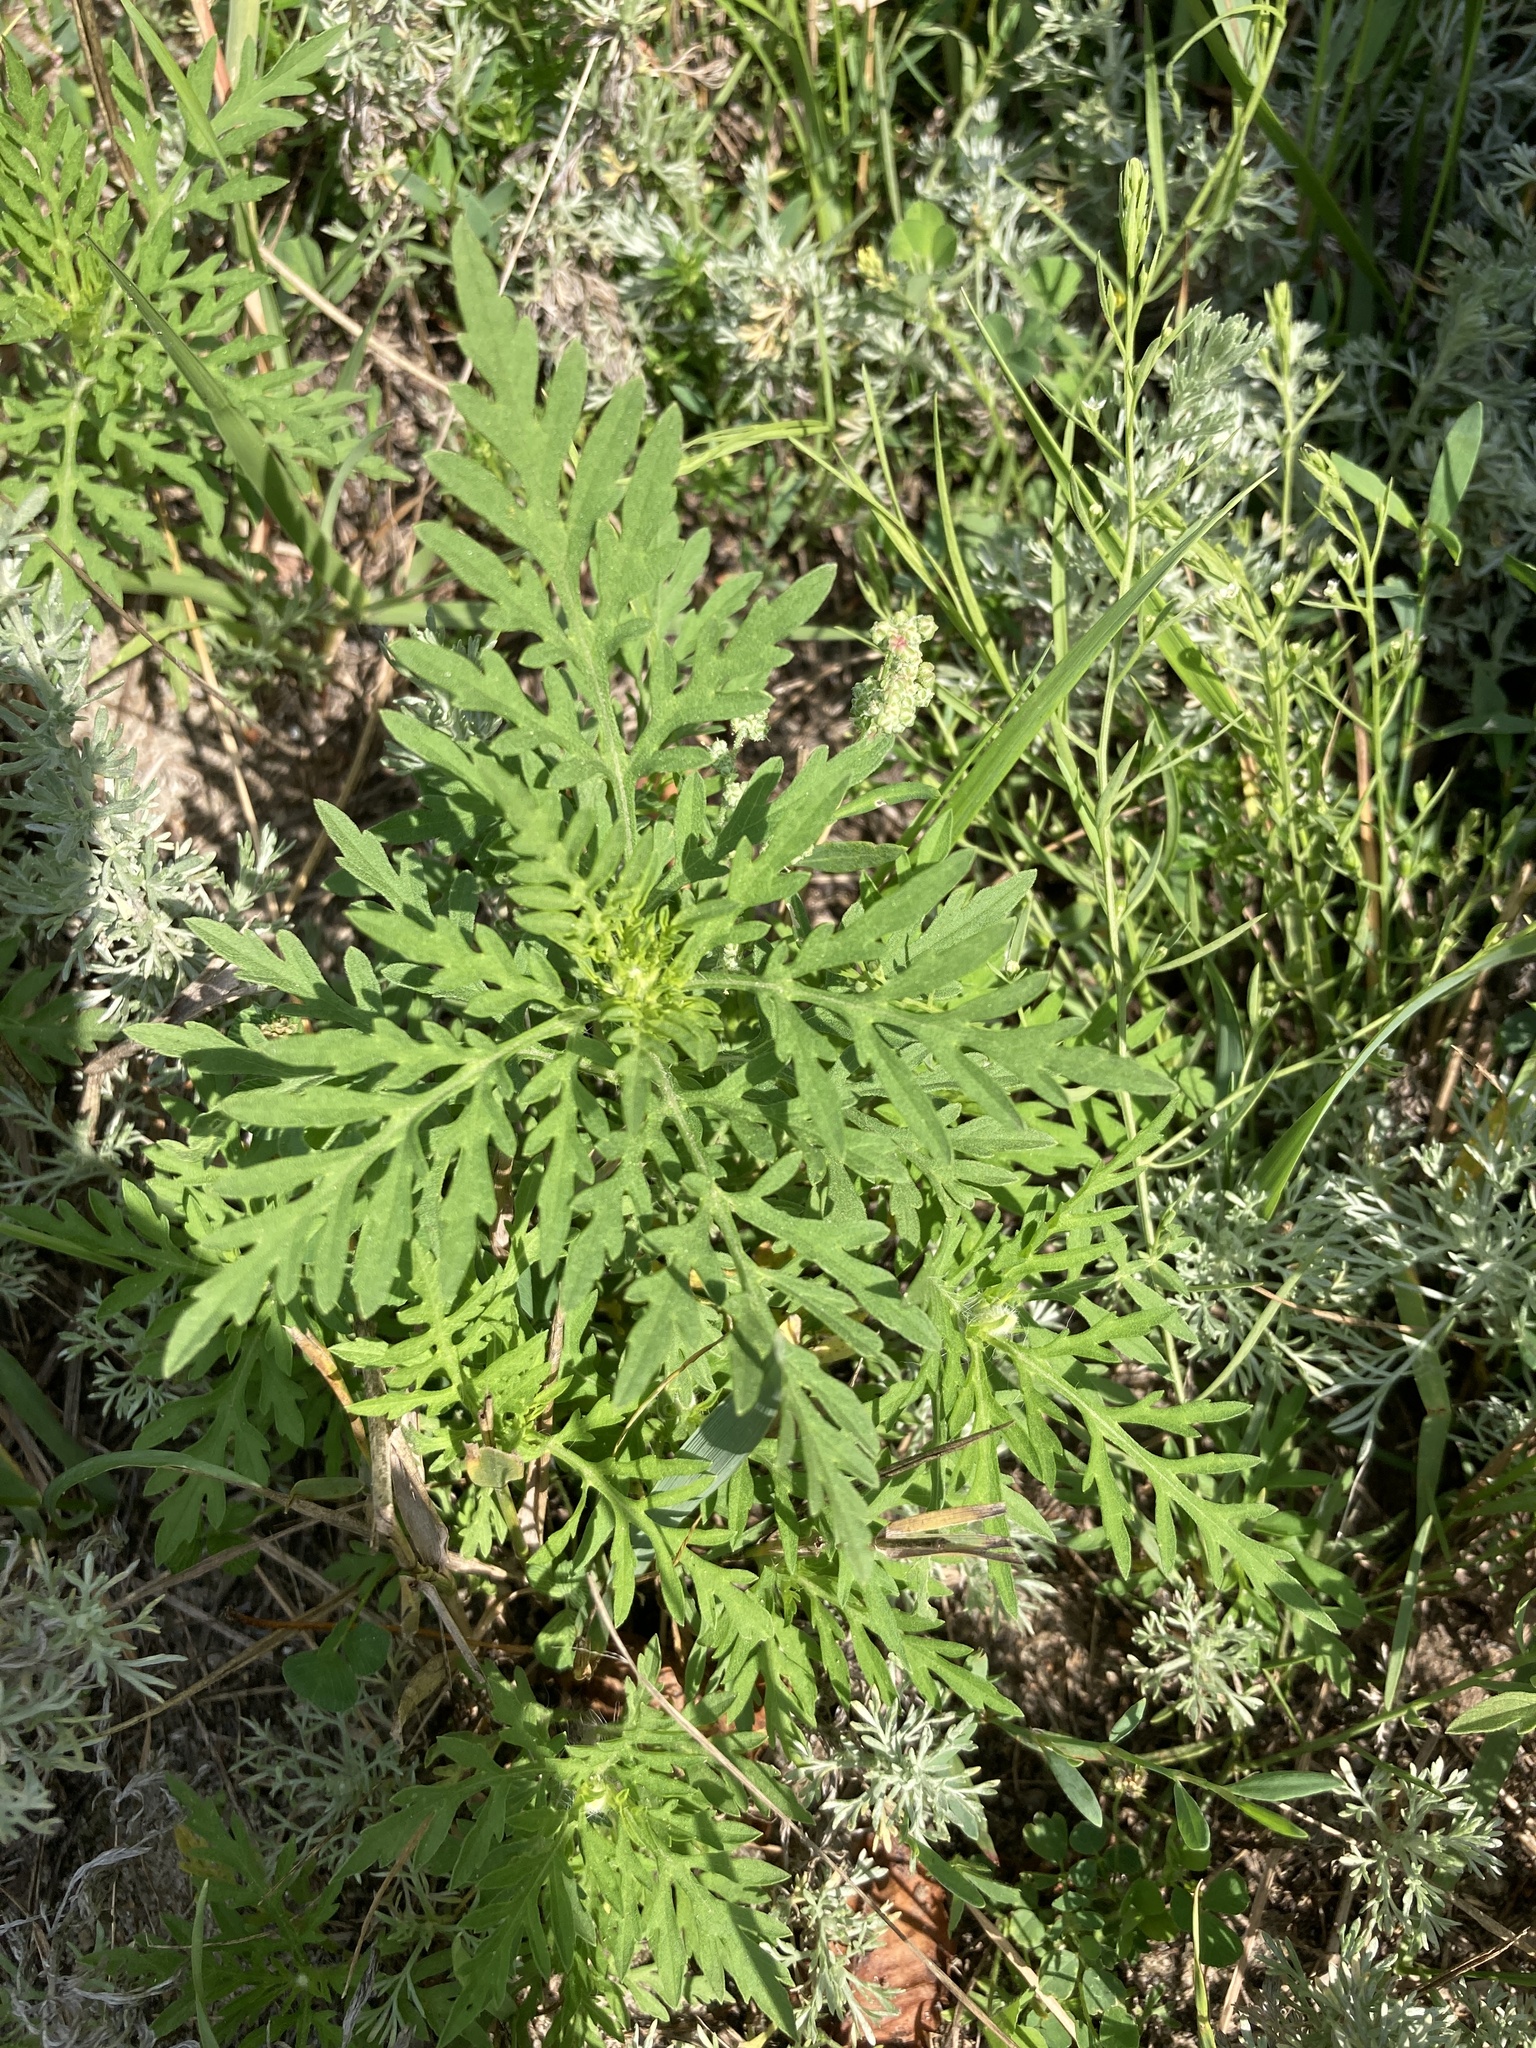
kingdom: Plantae
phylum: Tracheophyta
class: Magnoliopsida
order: Asterales
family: Asteraceae
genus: Ambrosia
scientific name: Ambrosia artemisiifolia
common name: Annual ragweed
